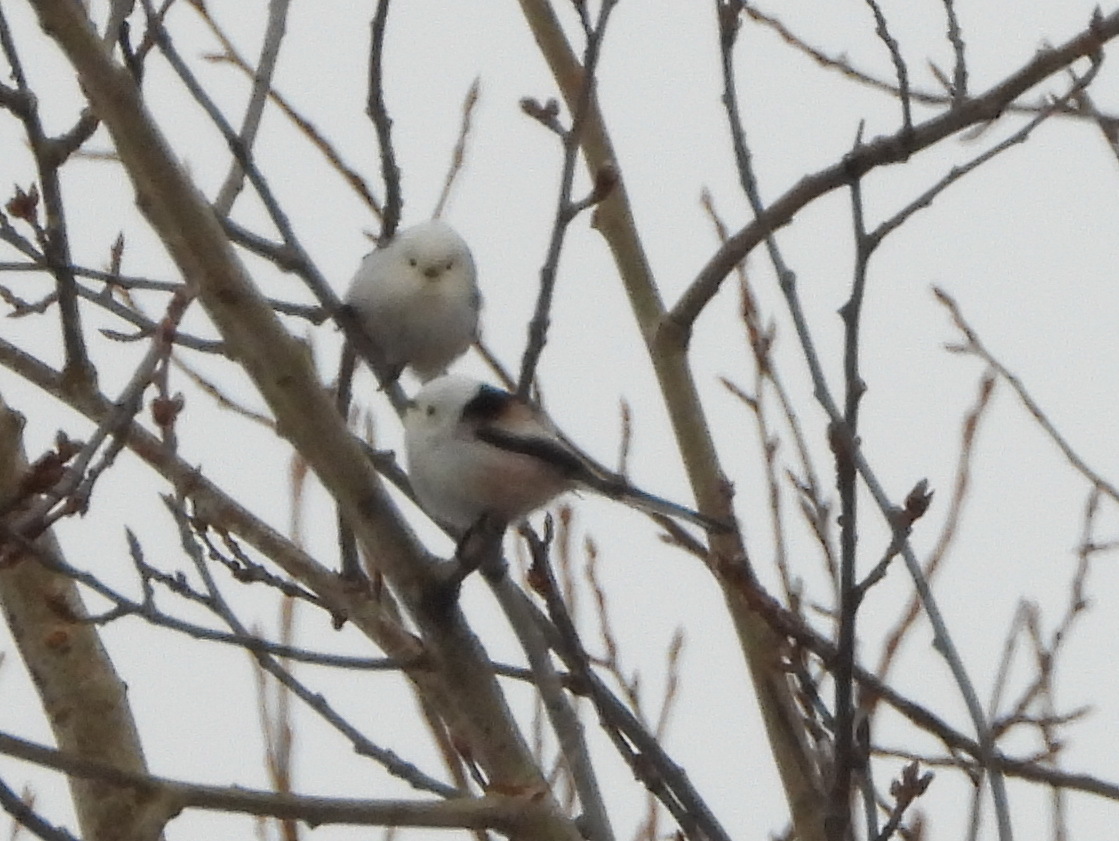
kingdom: Animalia
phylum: Chordata
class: Aves
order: Passeriformes
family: Aegithalidae
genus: Aegithalos
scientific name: Aegithalos caudatus
